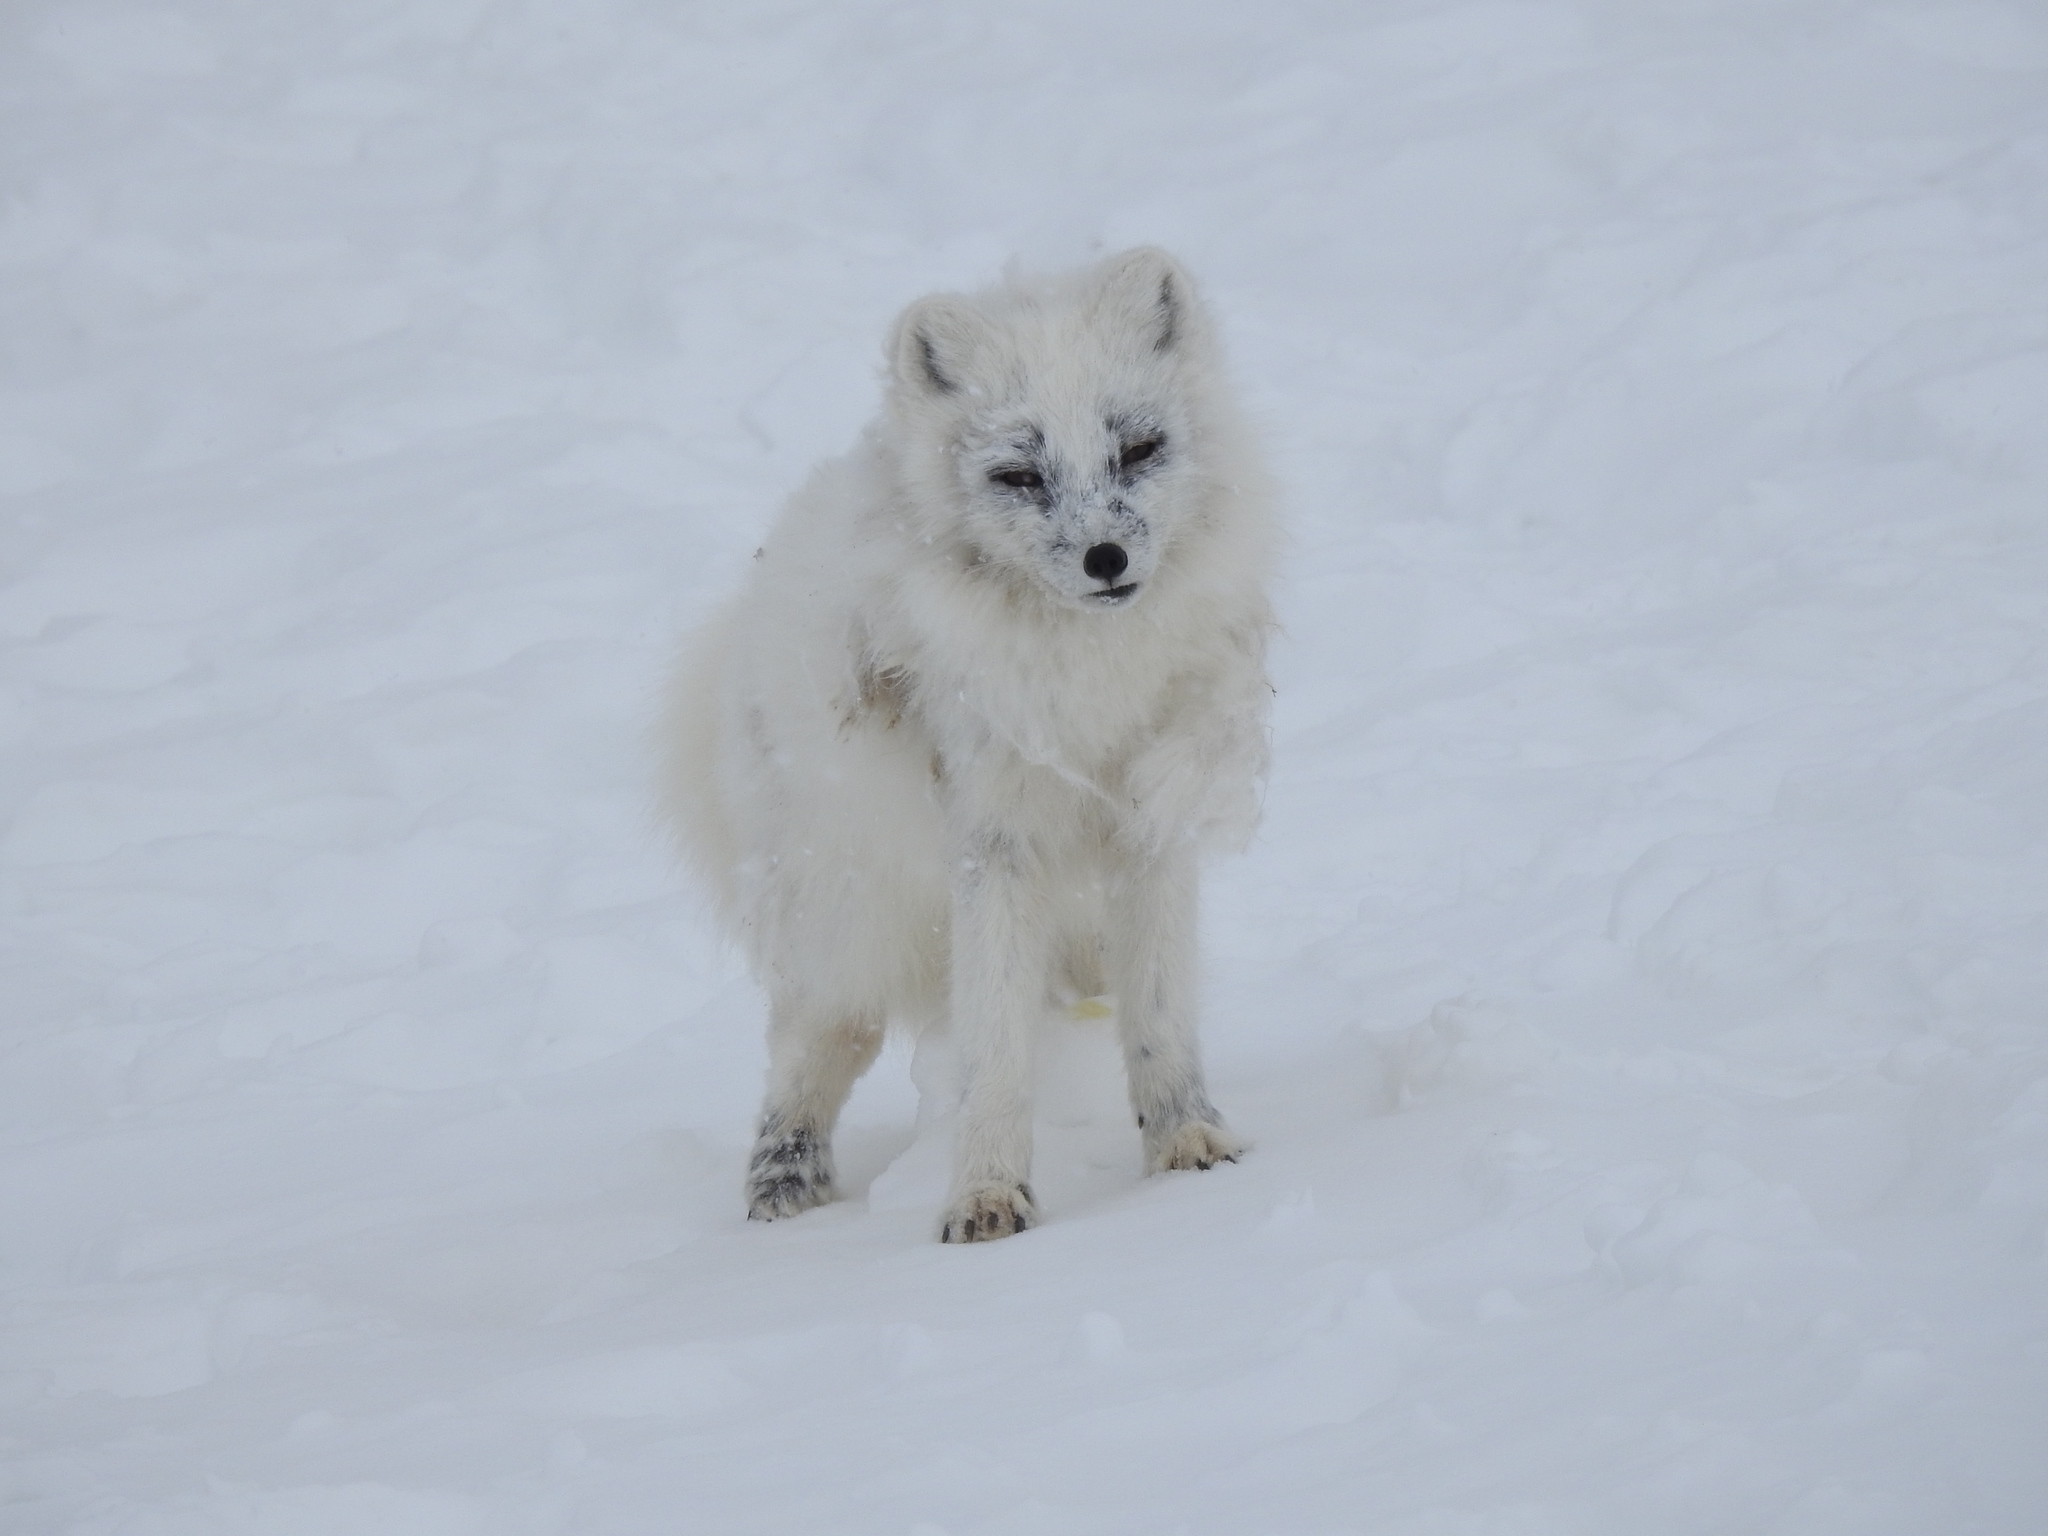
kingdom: Animalia
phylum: Chordata
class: Mammalia
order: Carnivora
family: Canidae
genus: Vulpes
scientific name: Vulpes lagopus
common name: Arctic fox
